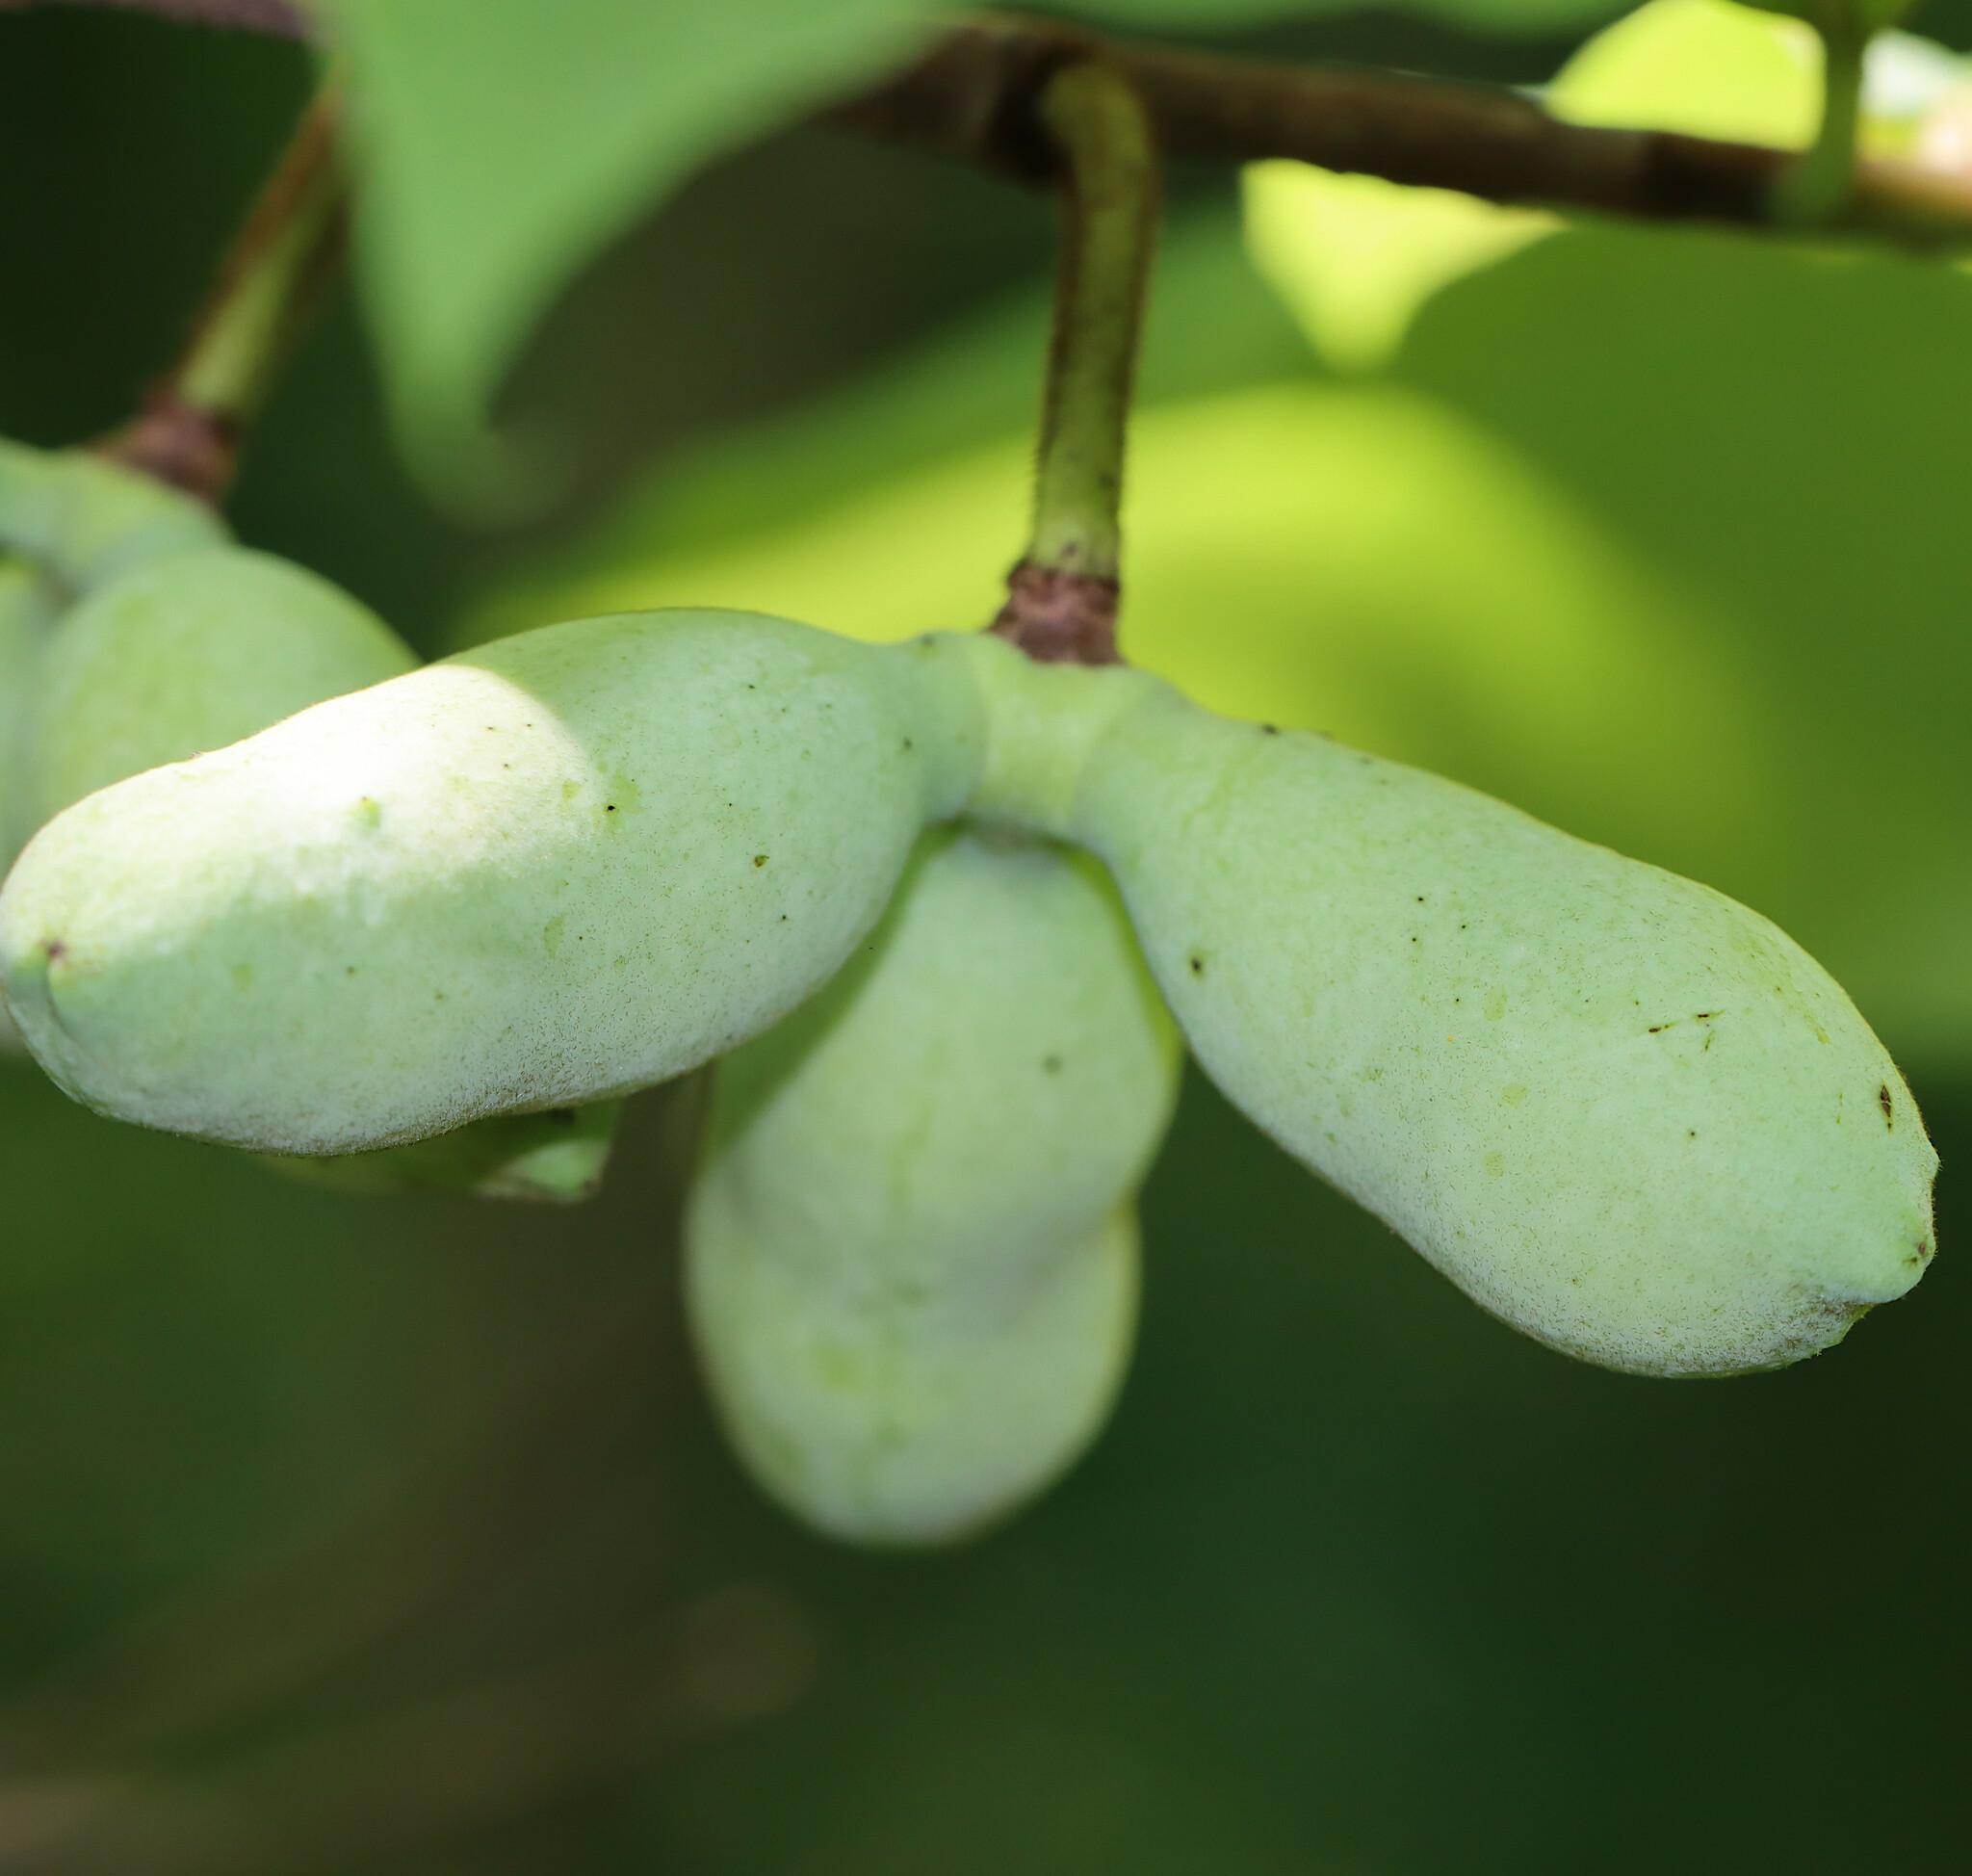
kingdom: Plantae
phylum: Tracheophyta
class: Magnoliopsida
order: Magnoliales
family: Annonaceae
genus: Asimina
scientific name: Asimina triloba
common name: Dog-banana
